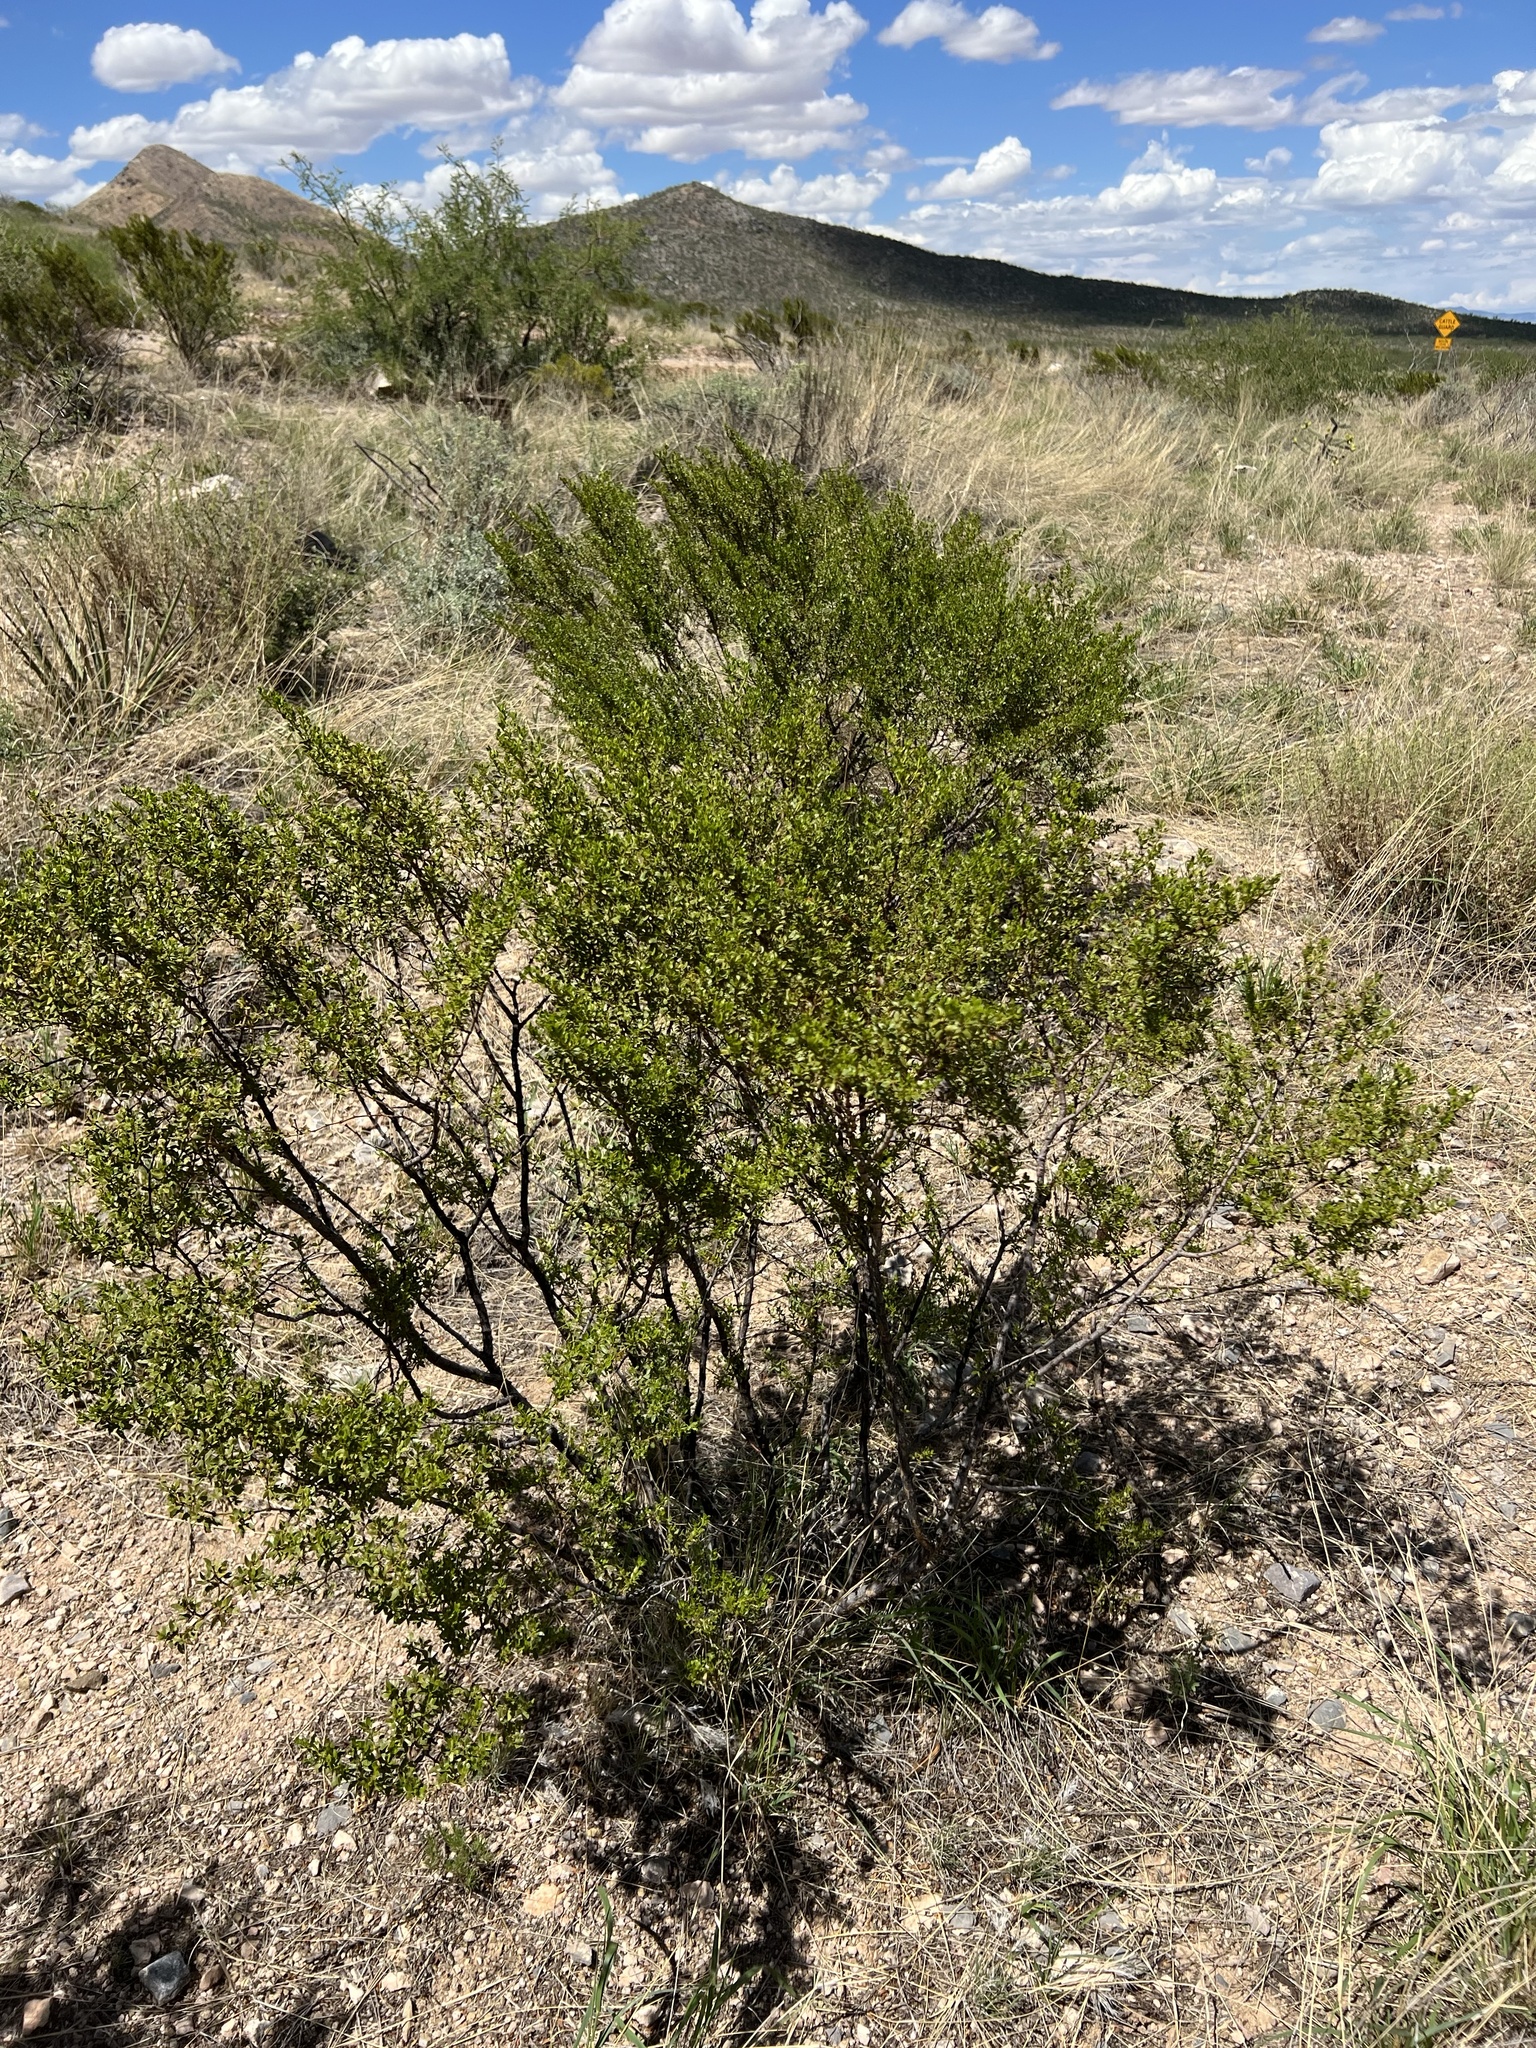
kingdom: Plantae
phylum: Tracheophyta
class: Magnoliopsida
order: Zygophyllales
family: Zygophyllaceae
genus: Larrea
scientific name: Larrea tridentata
